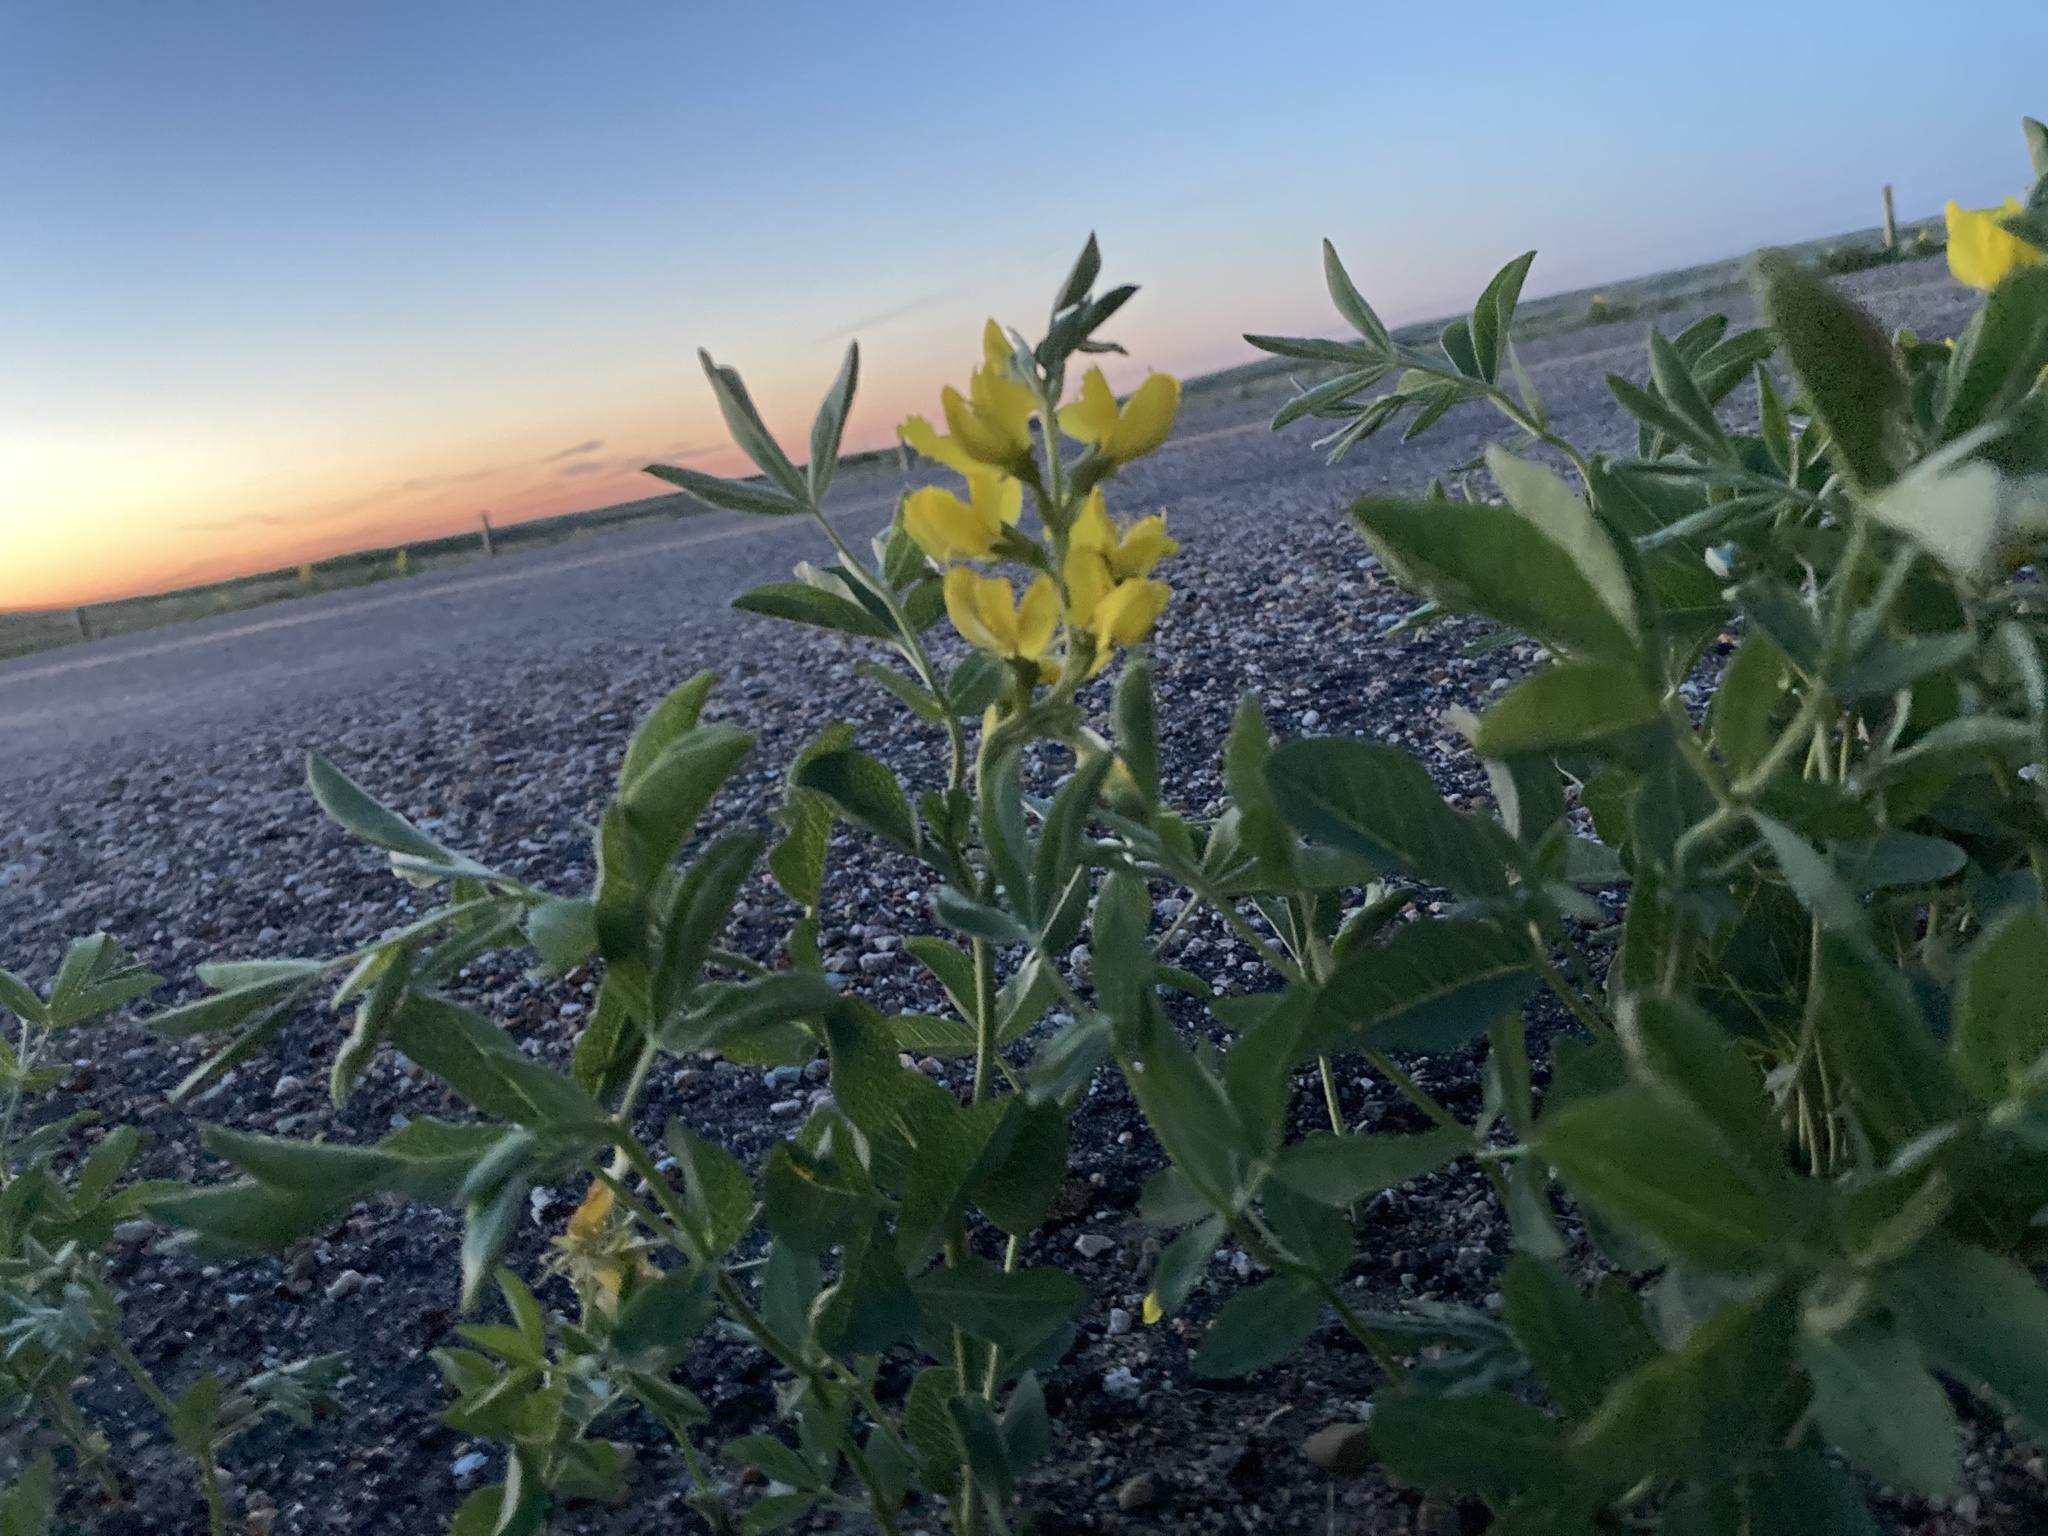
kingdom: Plantae
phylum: Tracheophyta
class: Magnoliopsida
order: Fabales
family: Fabaceae
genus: Thermopsis
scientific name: Thermopsis rhombifolia
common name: Circle-pod-pea
